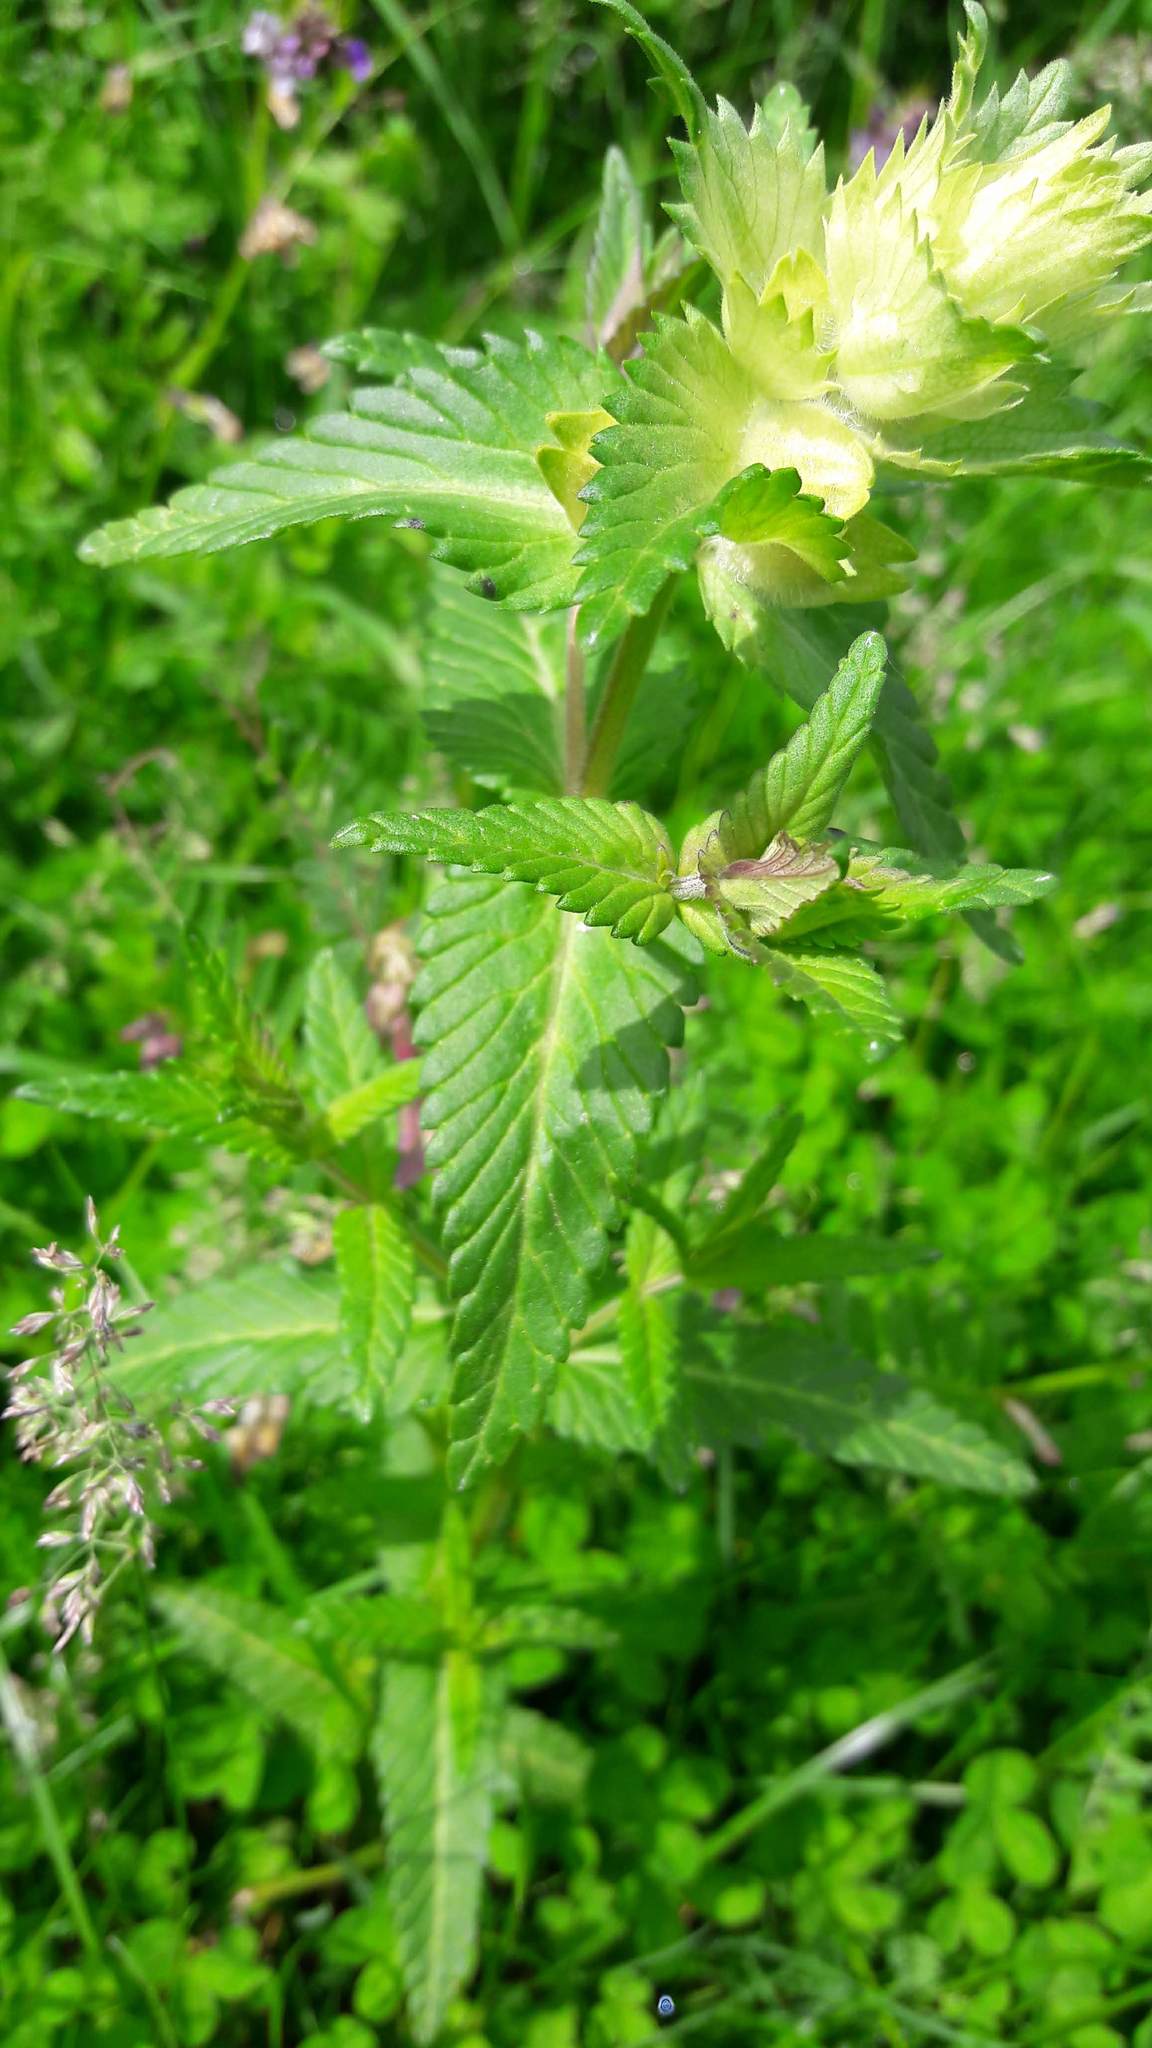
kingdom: Plantae
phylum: Tracheophyta
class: Magnoliopsida
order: Lamiales
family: Orobanchaceae
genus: Rhinanthus
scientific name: Rhinanthus alectorolophus
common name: Greater yellow-rattle
